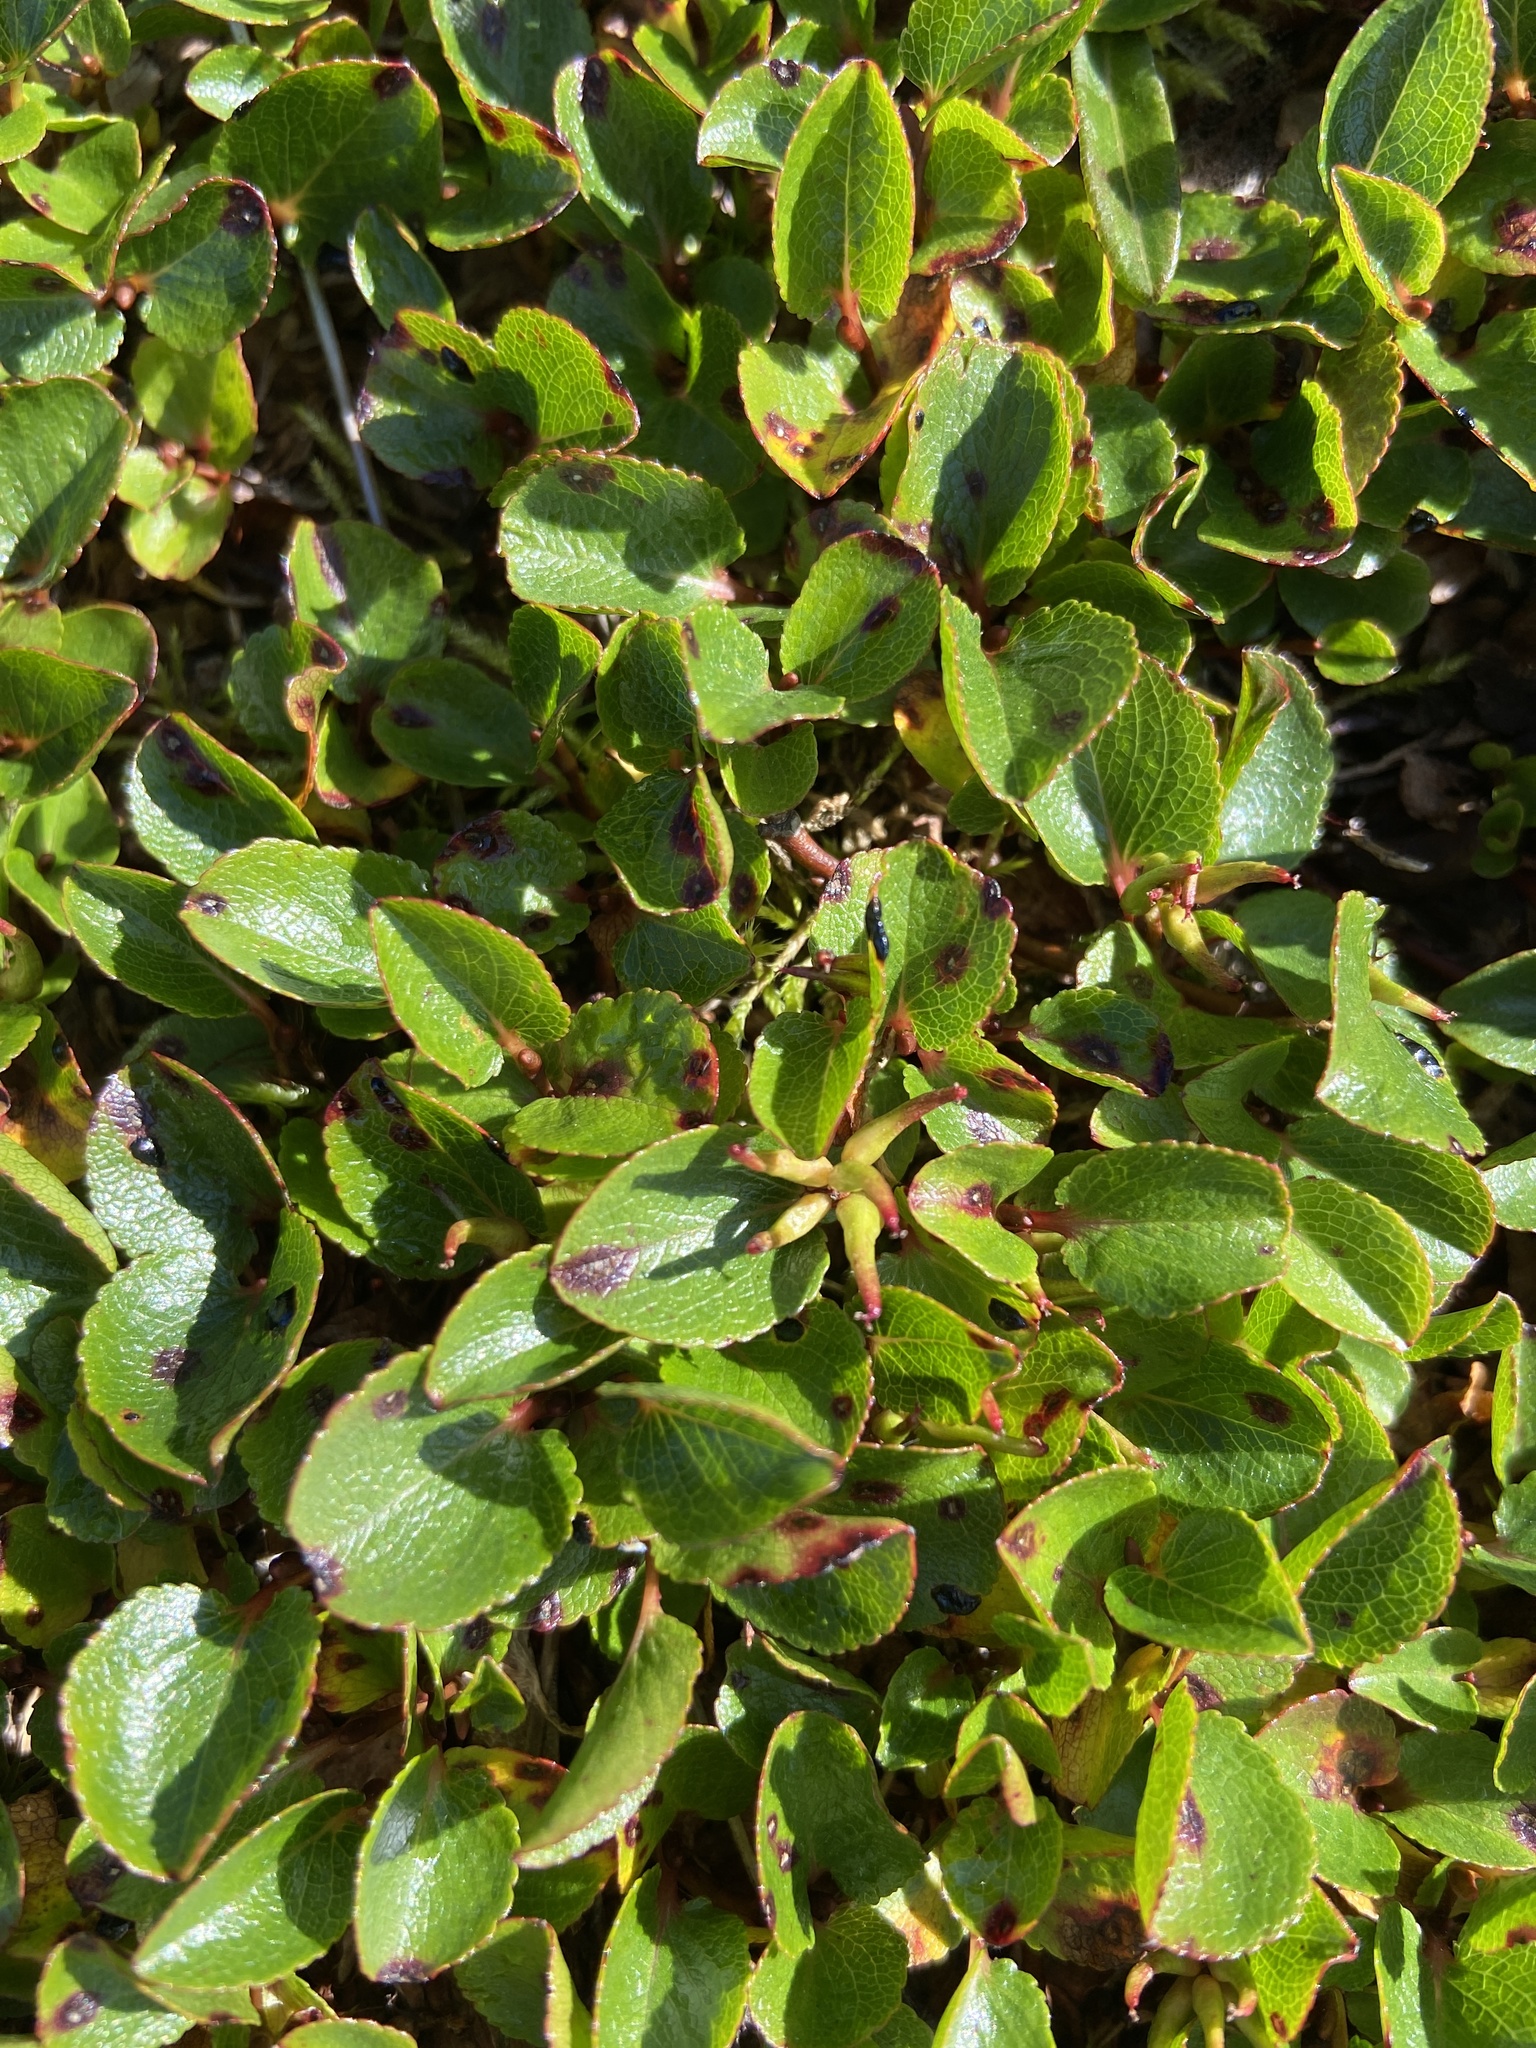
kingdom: Plantae
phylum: Tracheophyta
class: Magnoliopsida
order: Malpighiales
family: Salicaceae
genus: Salix
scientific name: Salix herbacea
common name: Dwarf willow
